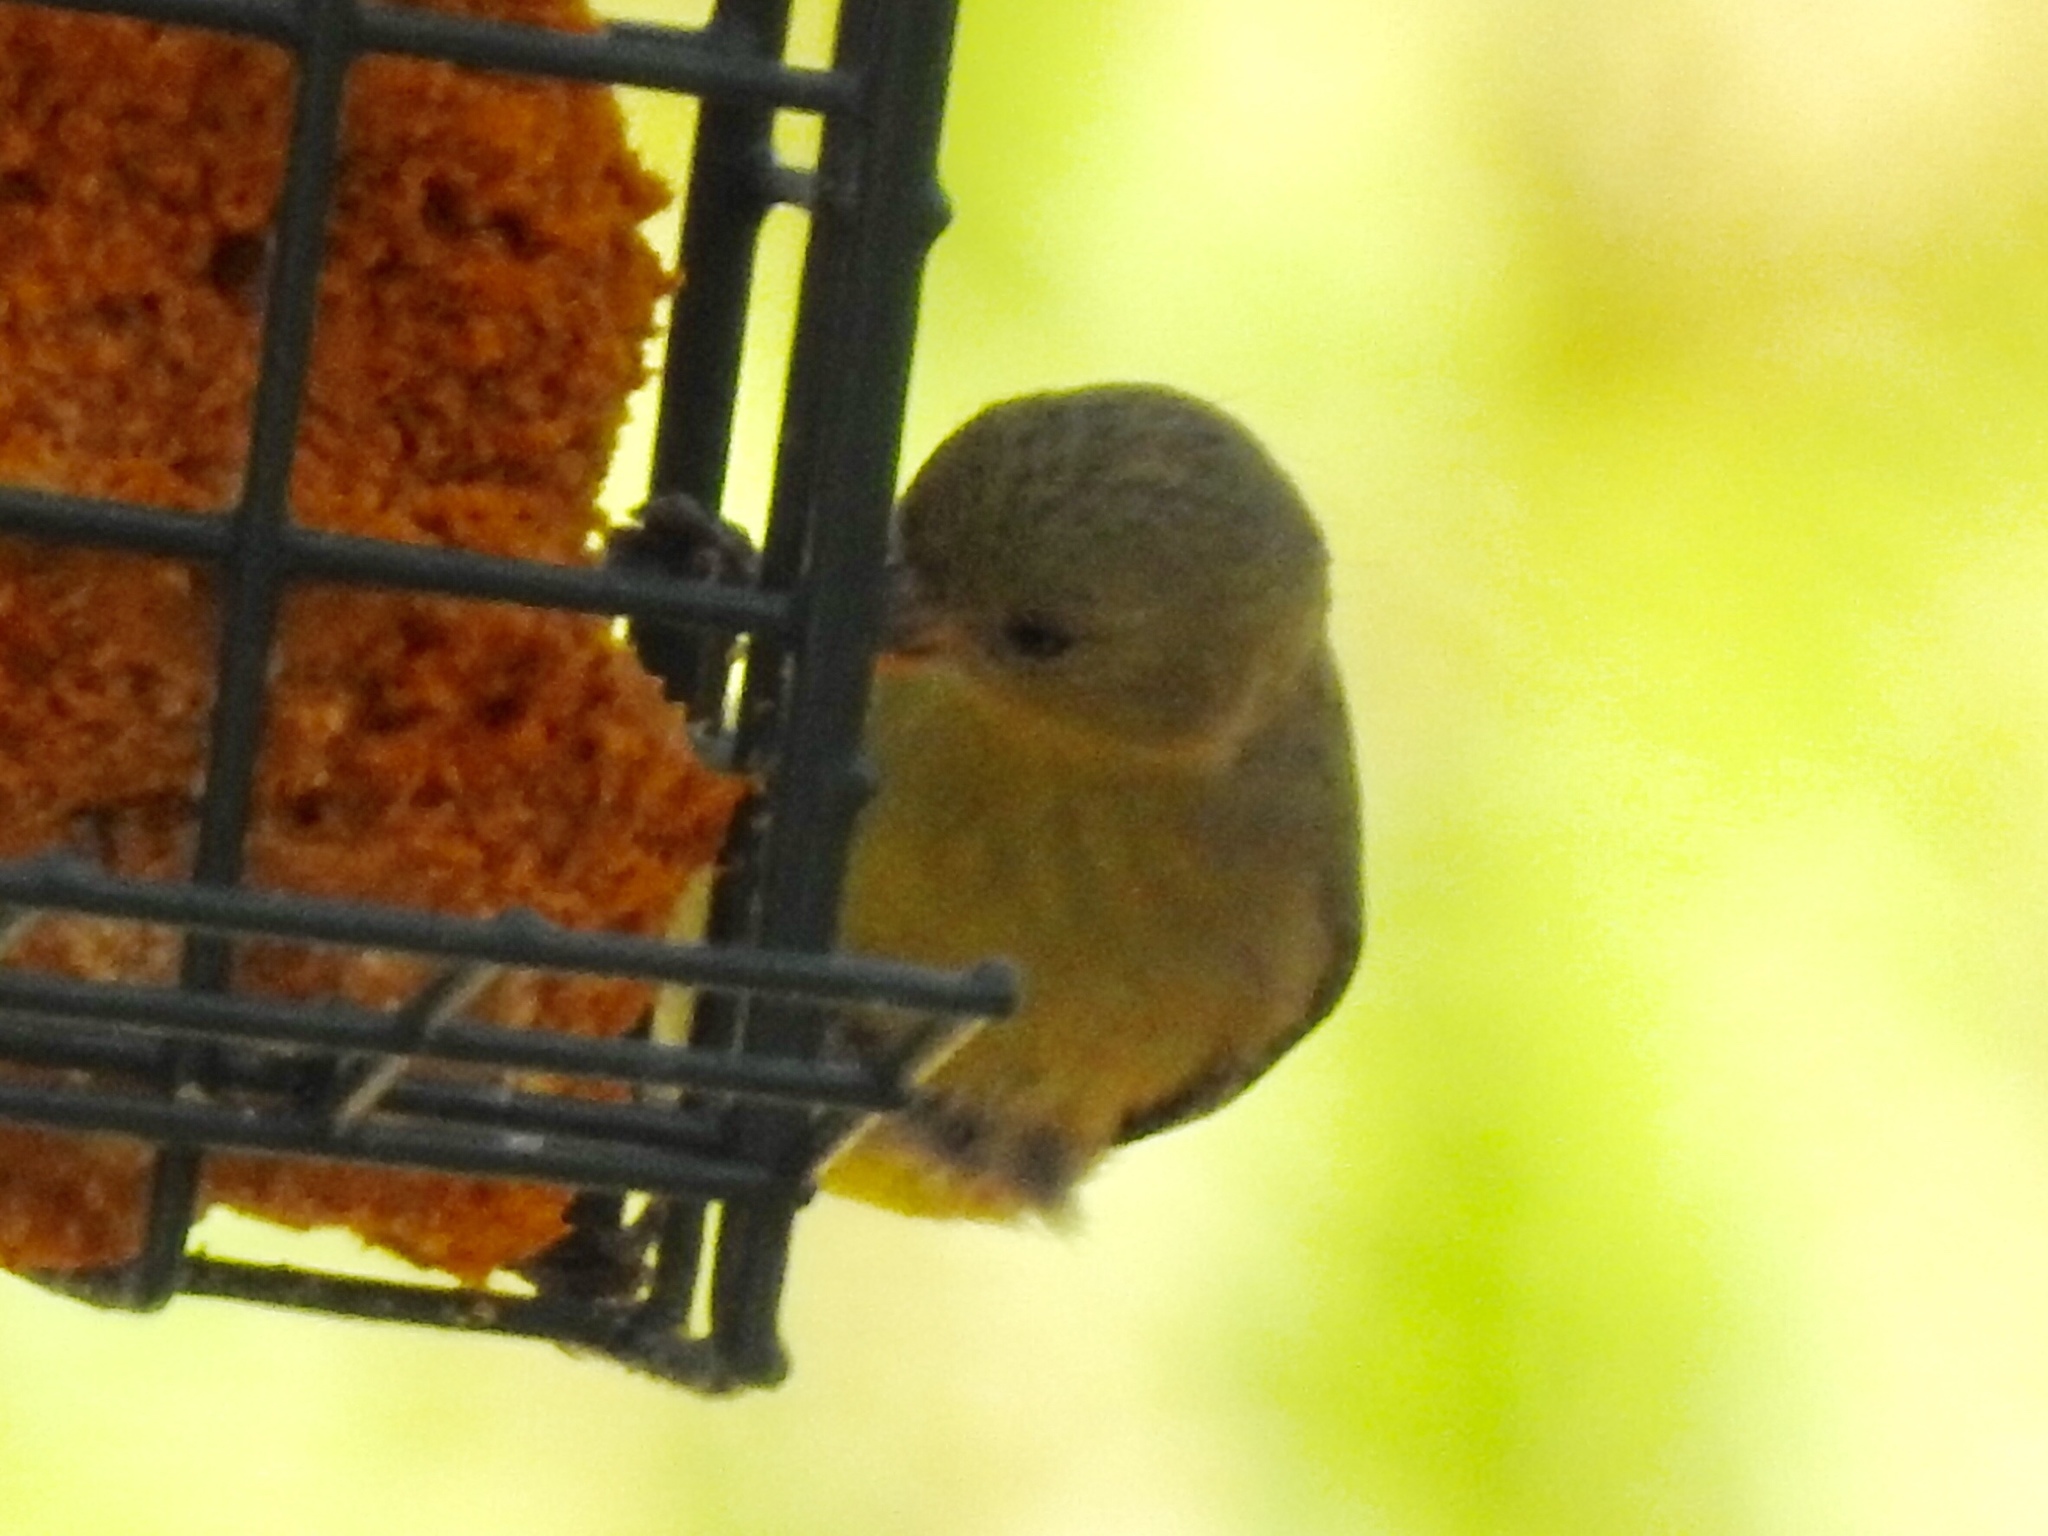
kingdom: Animalia
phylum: Chordata
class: Aves
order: Passeriformes
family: Fringillidae
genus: Spinus
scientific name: Spinus psaltria
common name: Lesser goldfinch
